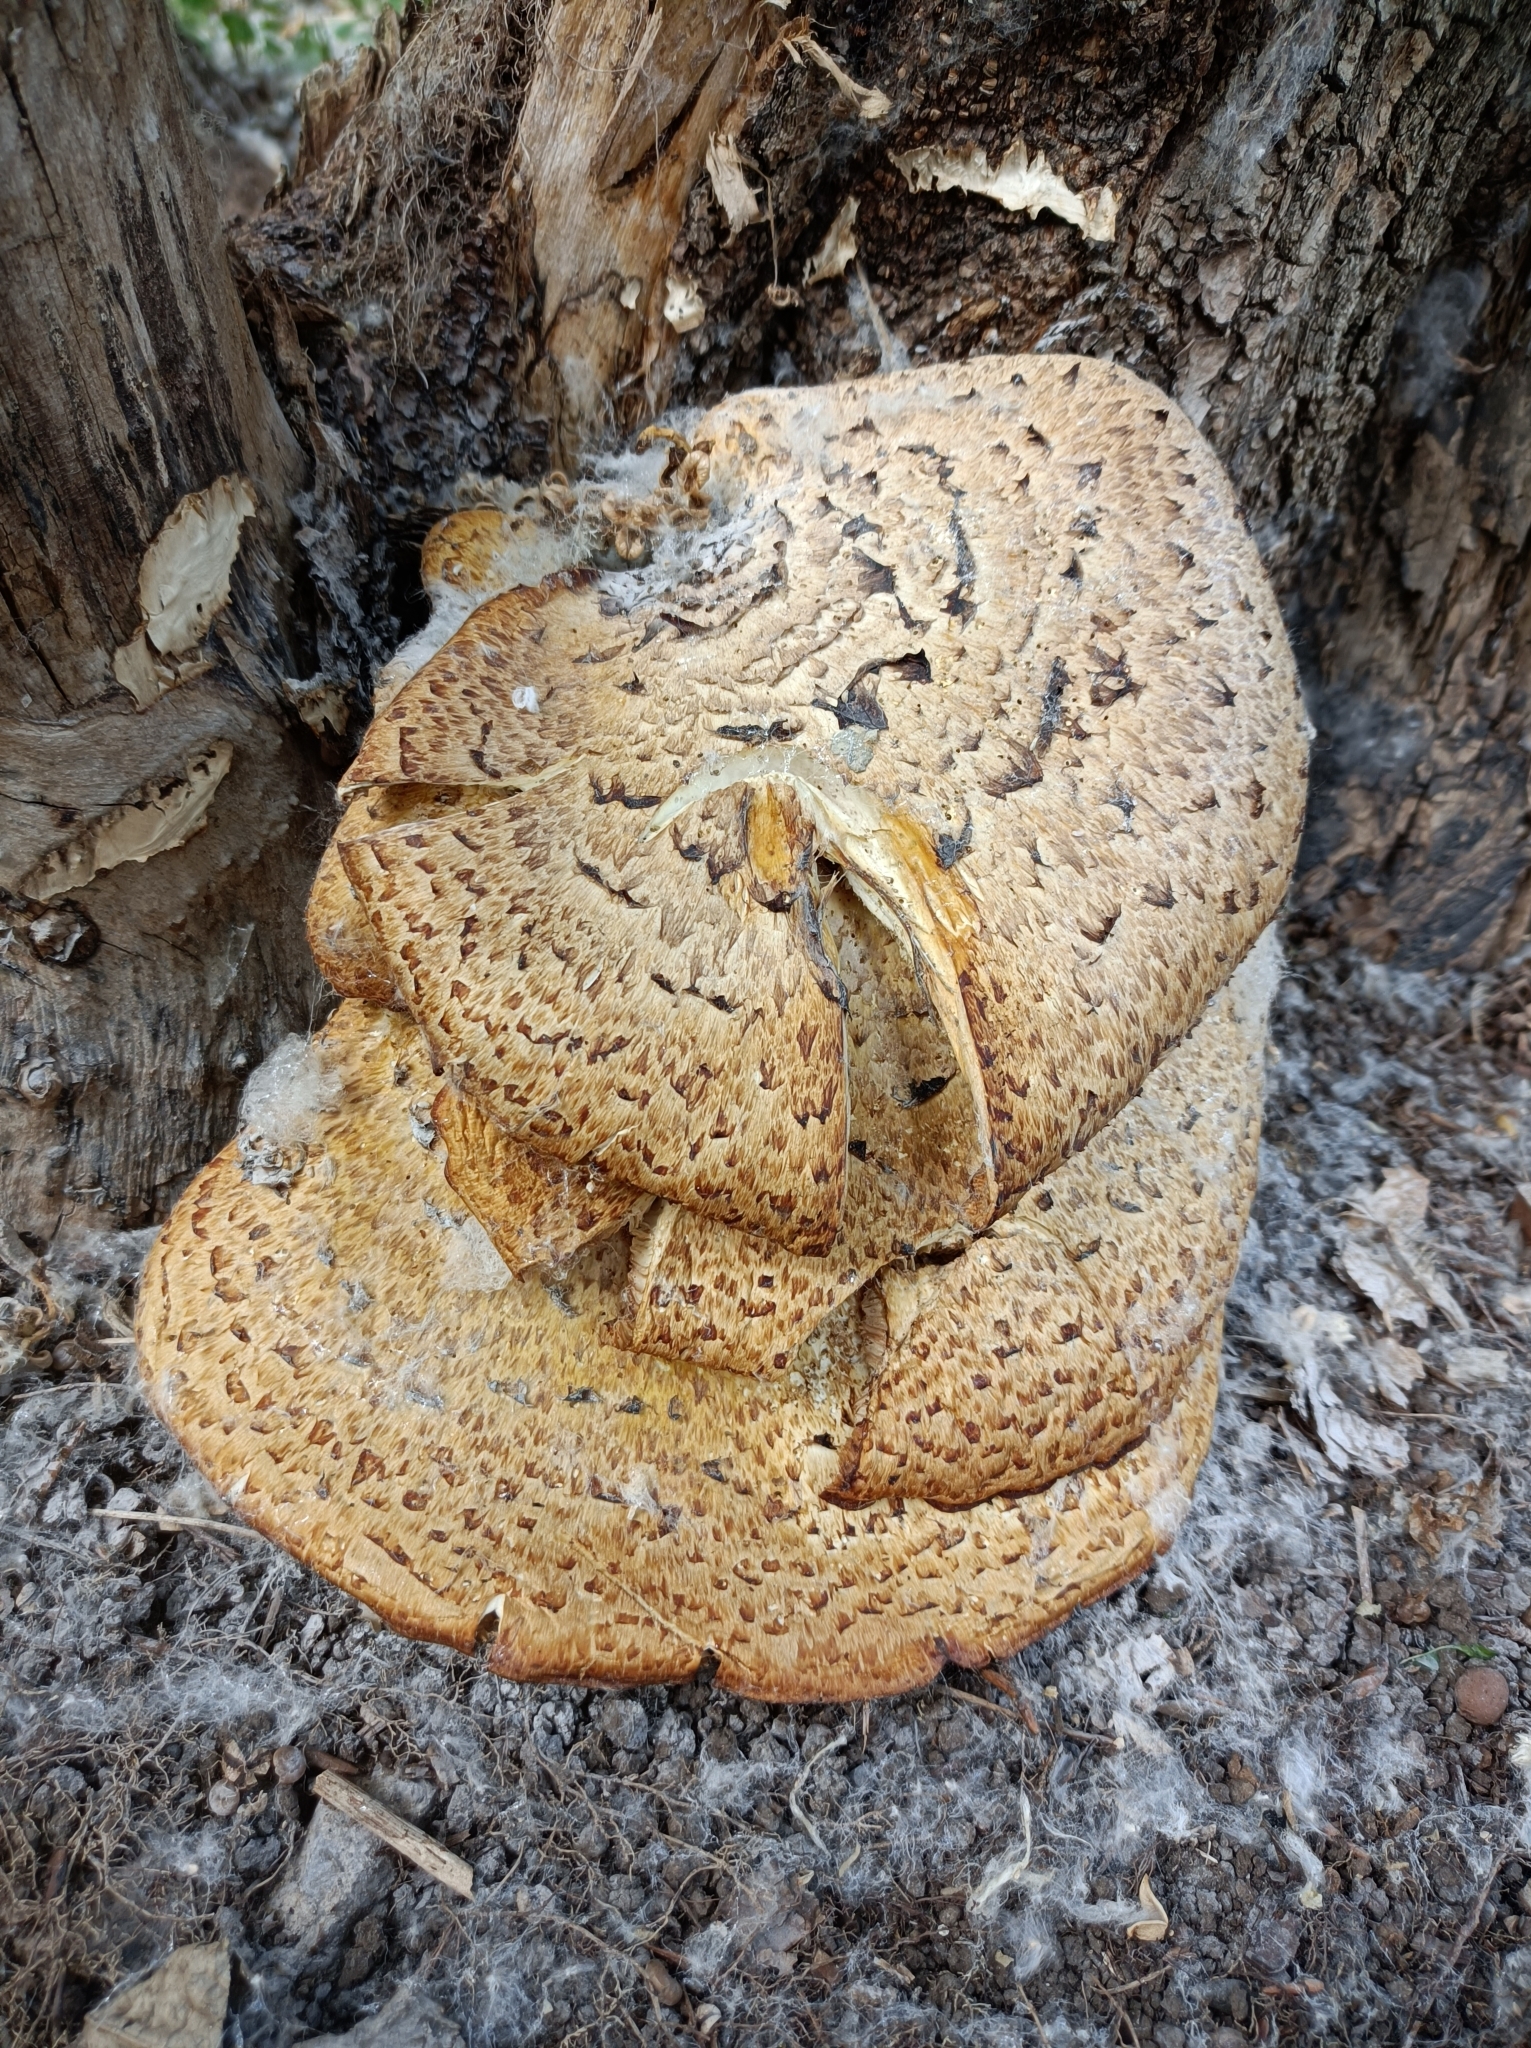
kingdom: Fungi
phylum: Basidiomycota
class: Agaricomycetes
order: Polyporales
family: Polyporaceae
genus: Cerioporus
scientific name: Cerioporus squamosus
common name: Dryad's saddle
